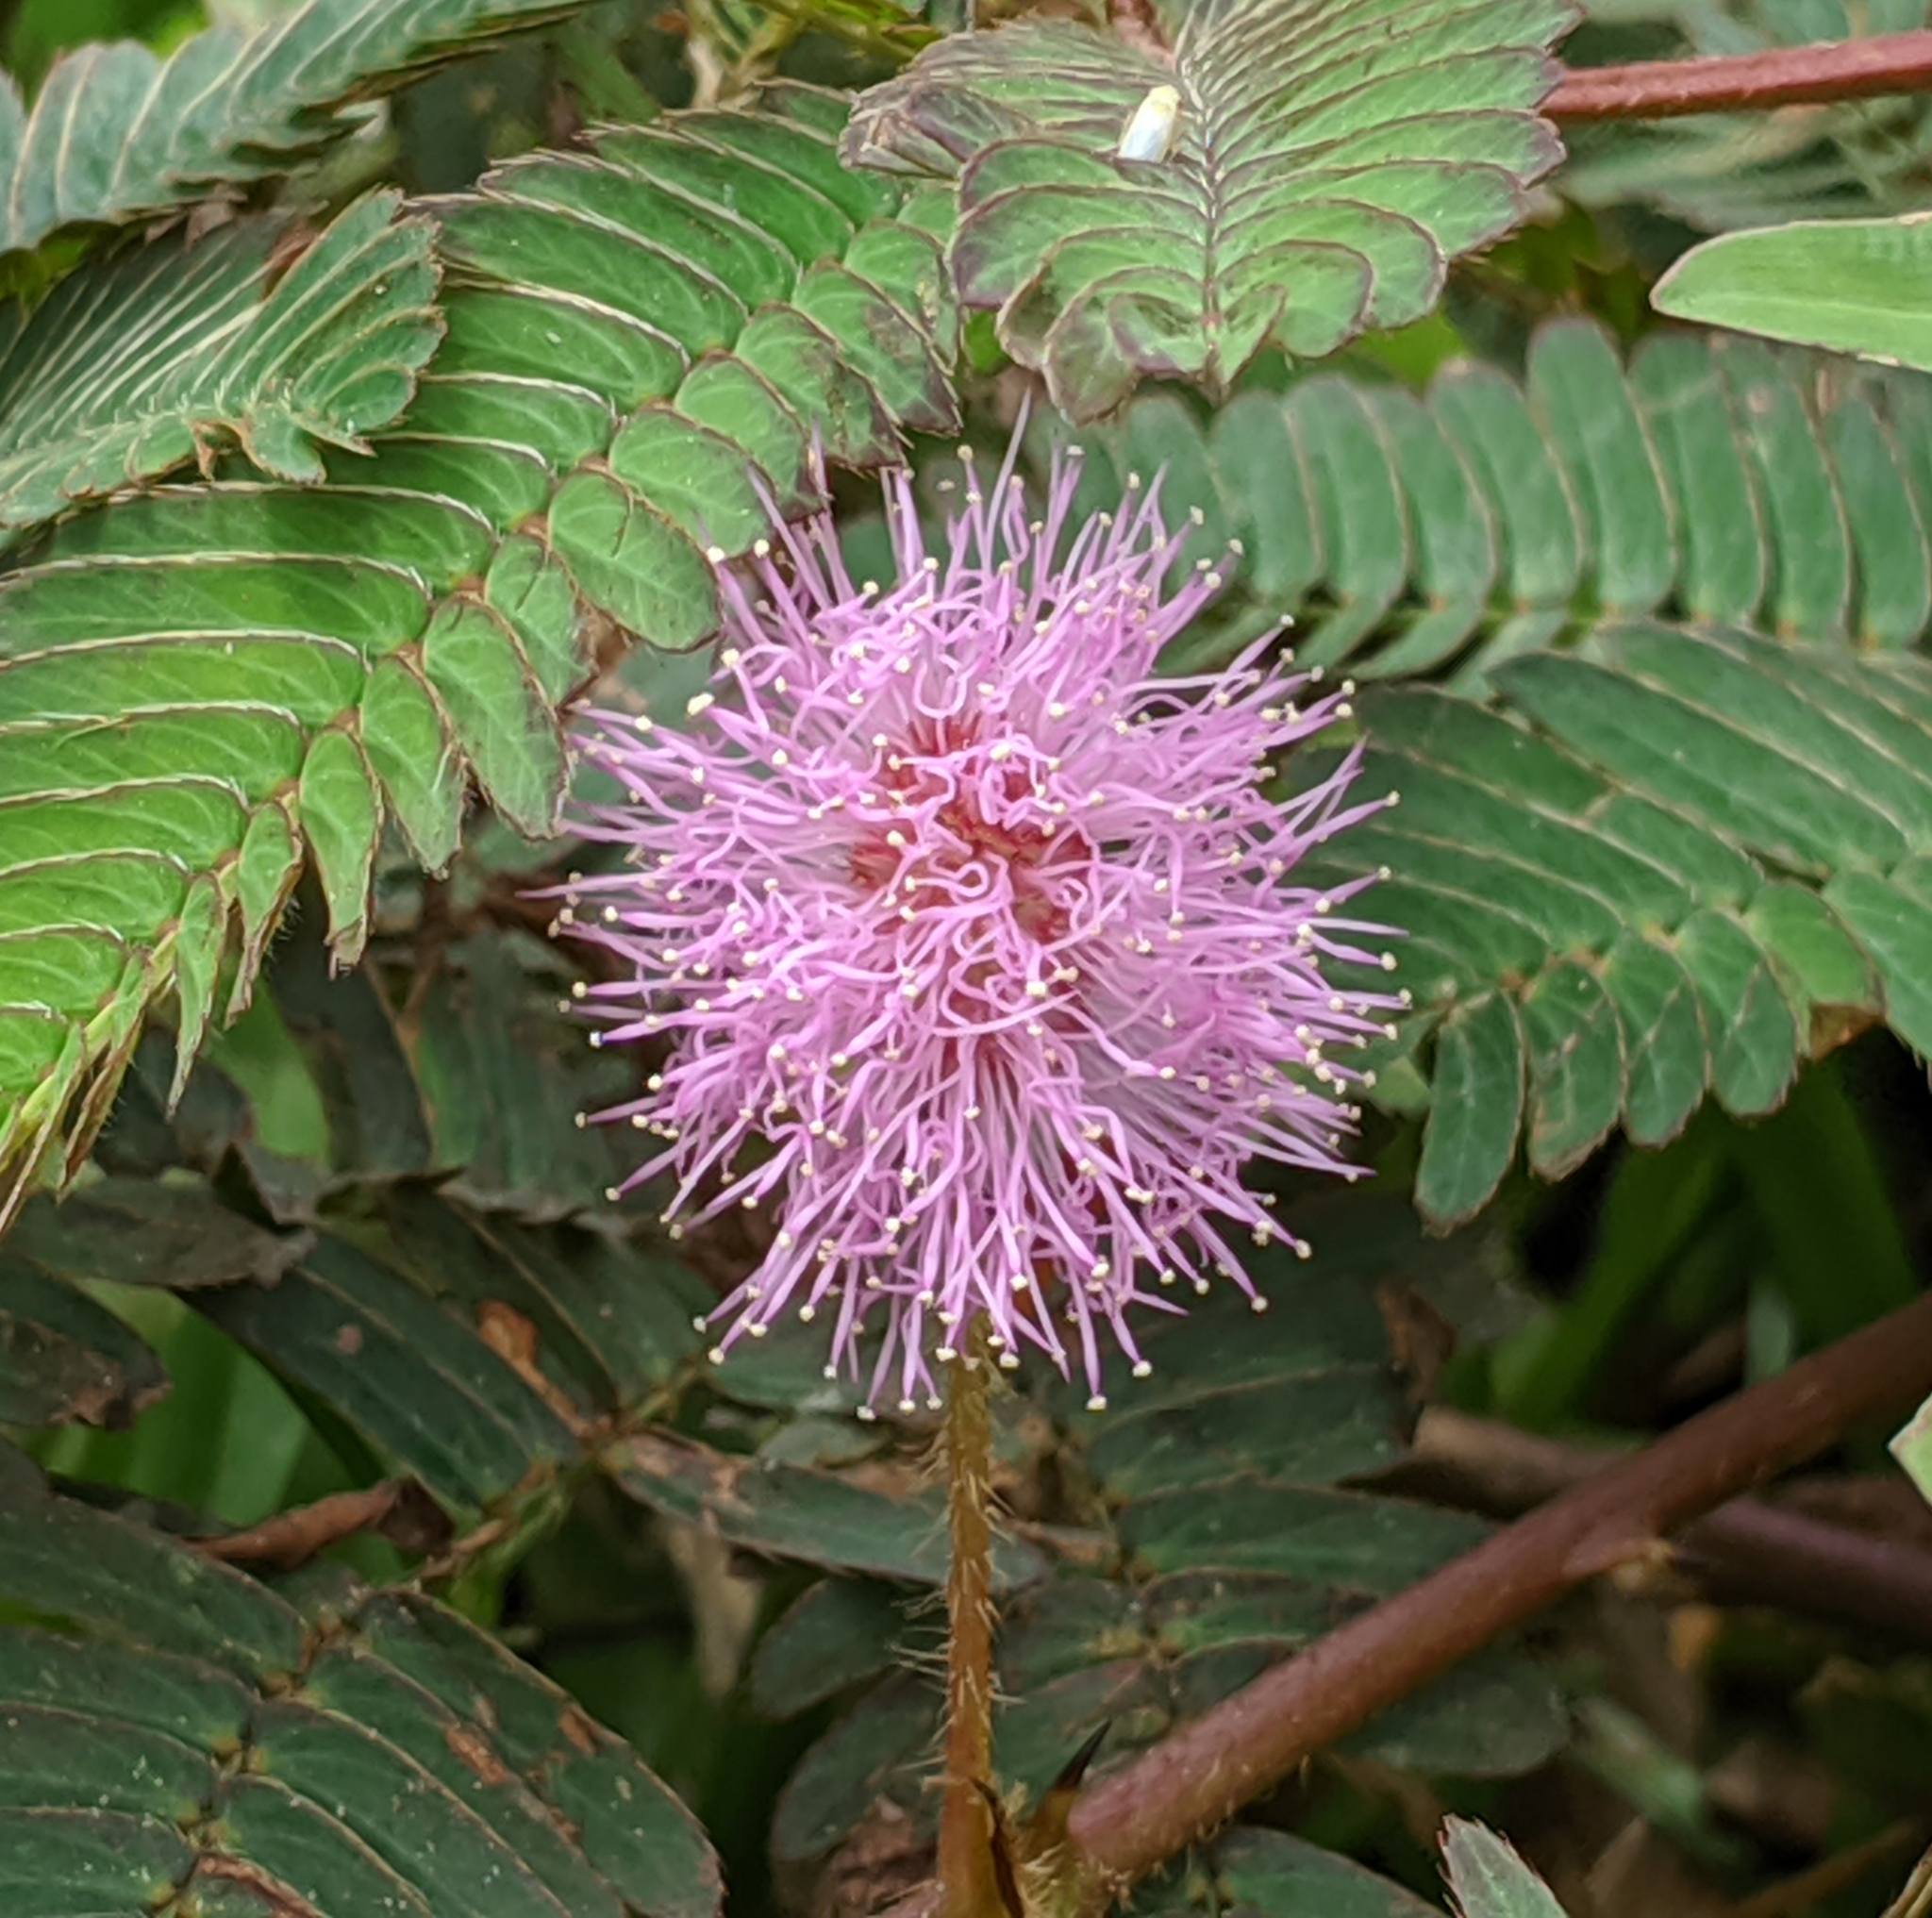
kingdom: Plantae
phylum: Tracheophyta
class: Magnoliopsida
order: Fabales
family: Fabaceae
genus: Mimosa
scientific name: Mimosa pudica
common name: Sensitive plant
